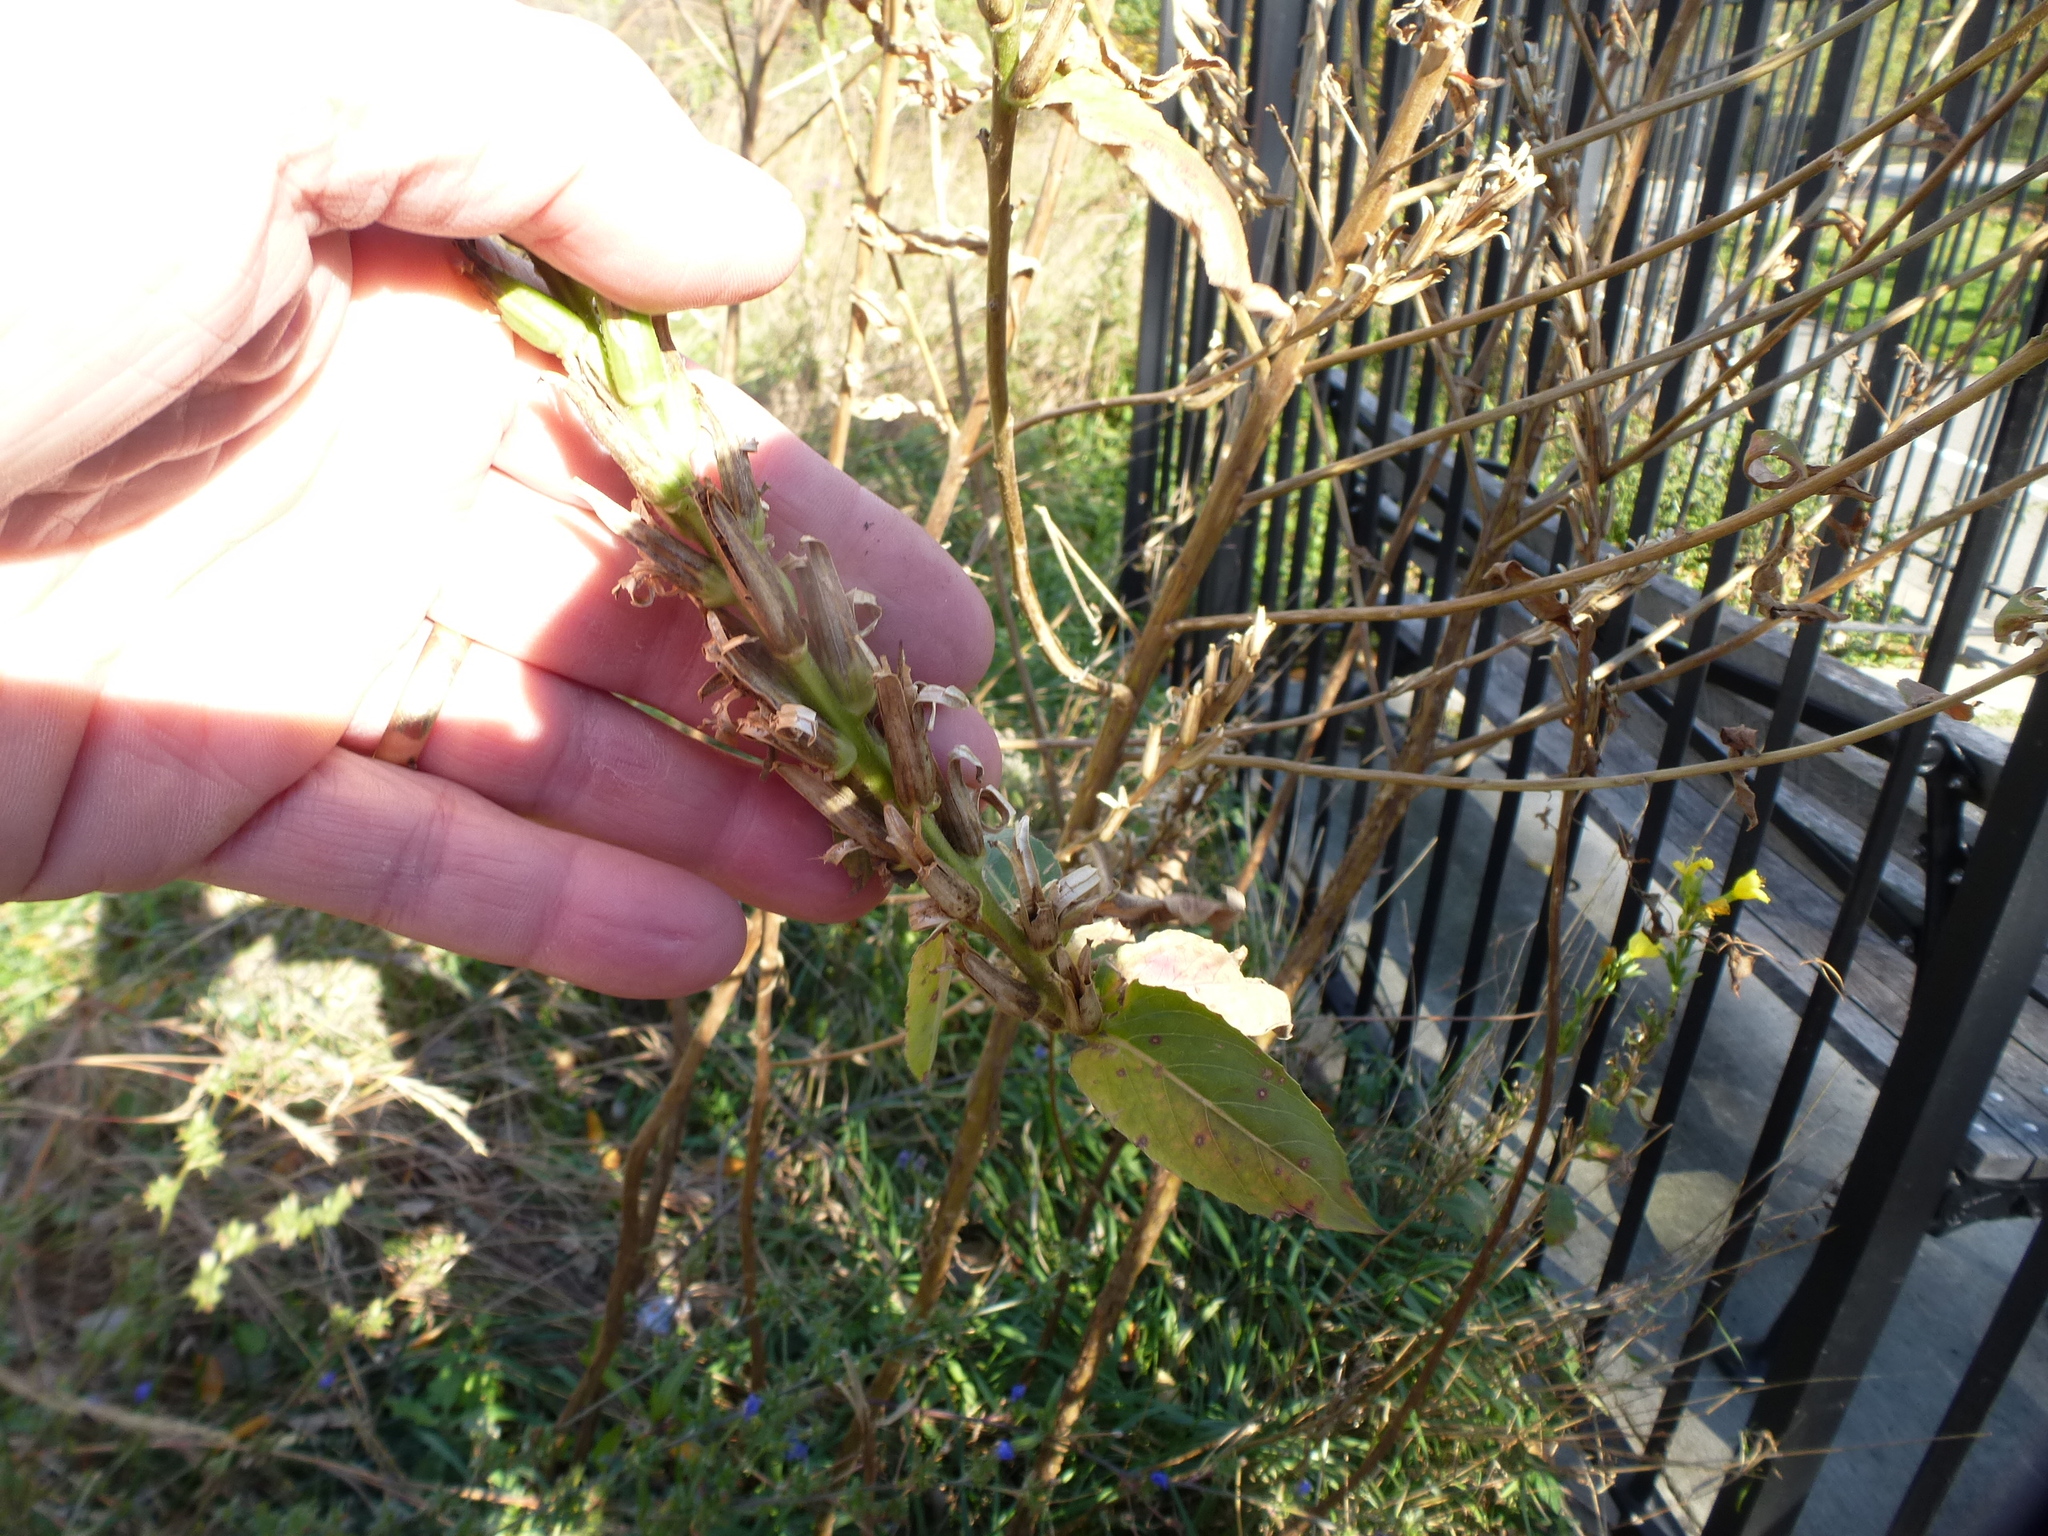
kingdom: Plantae
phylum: Tracheophyta
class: Magnoliopsida
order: Myrtales
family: Onagraceae
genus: Oenothera
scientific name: Oenothera biennis
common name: Common evening-primrose
